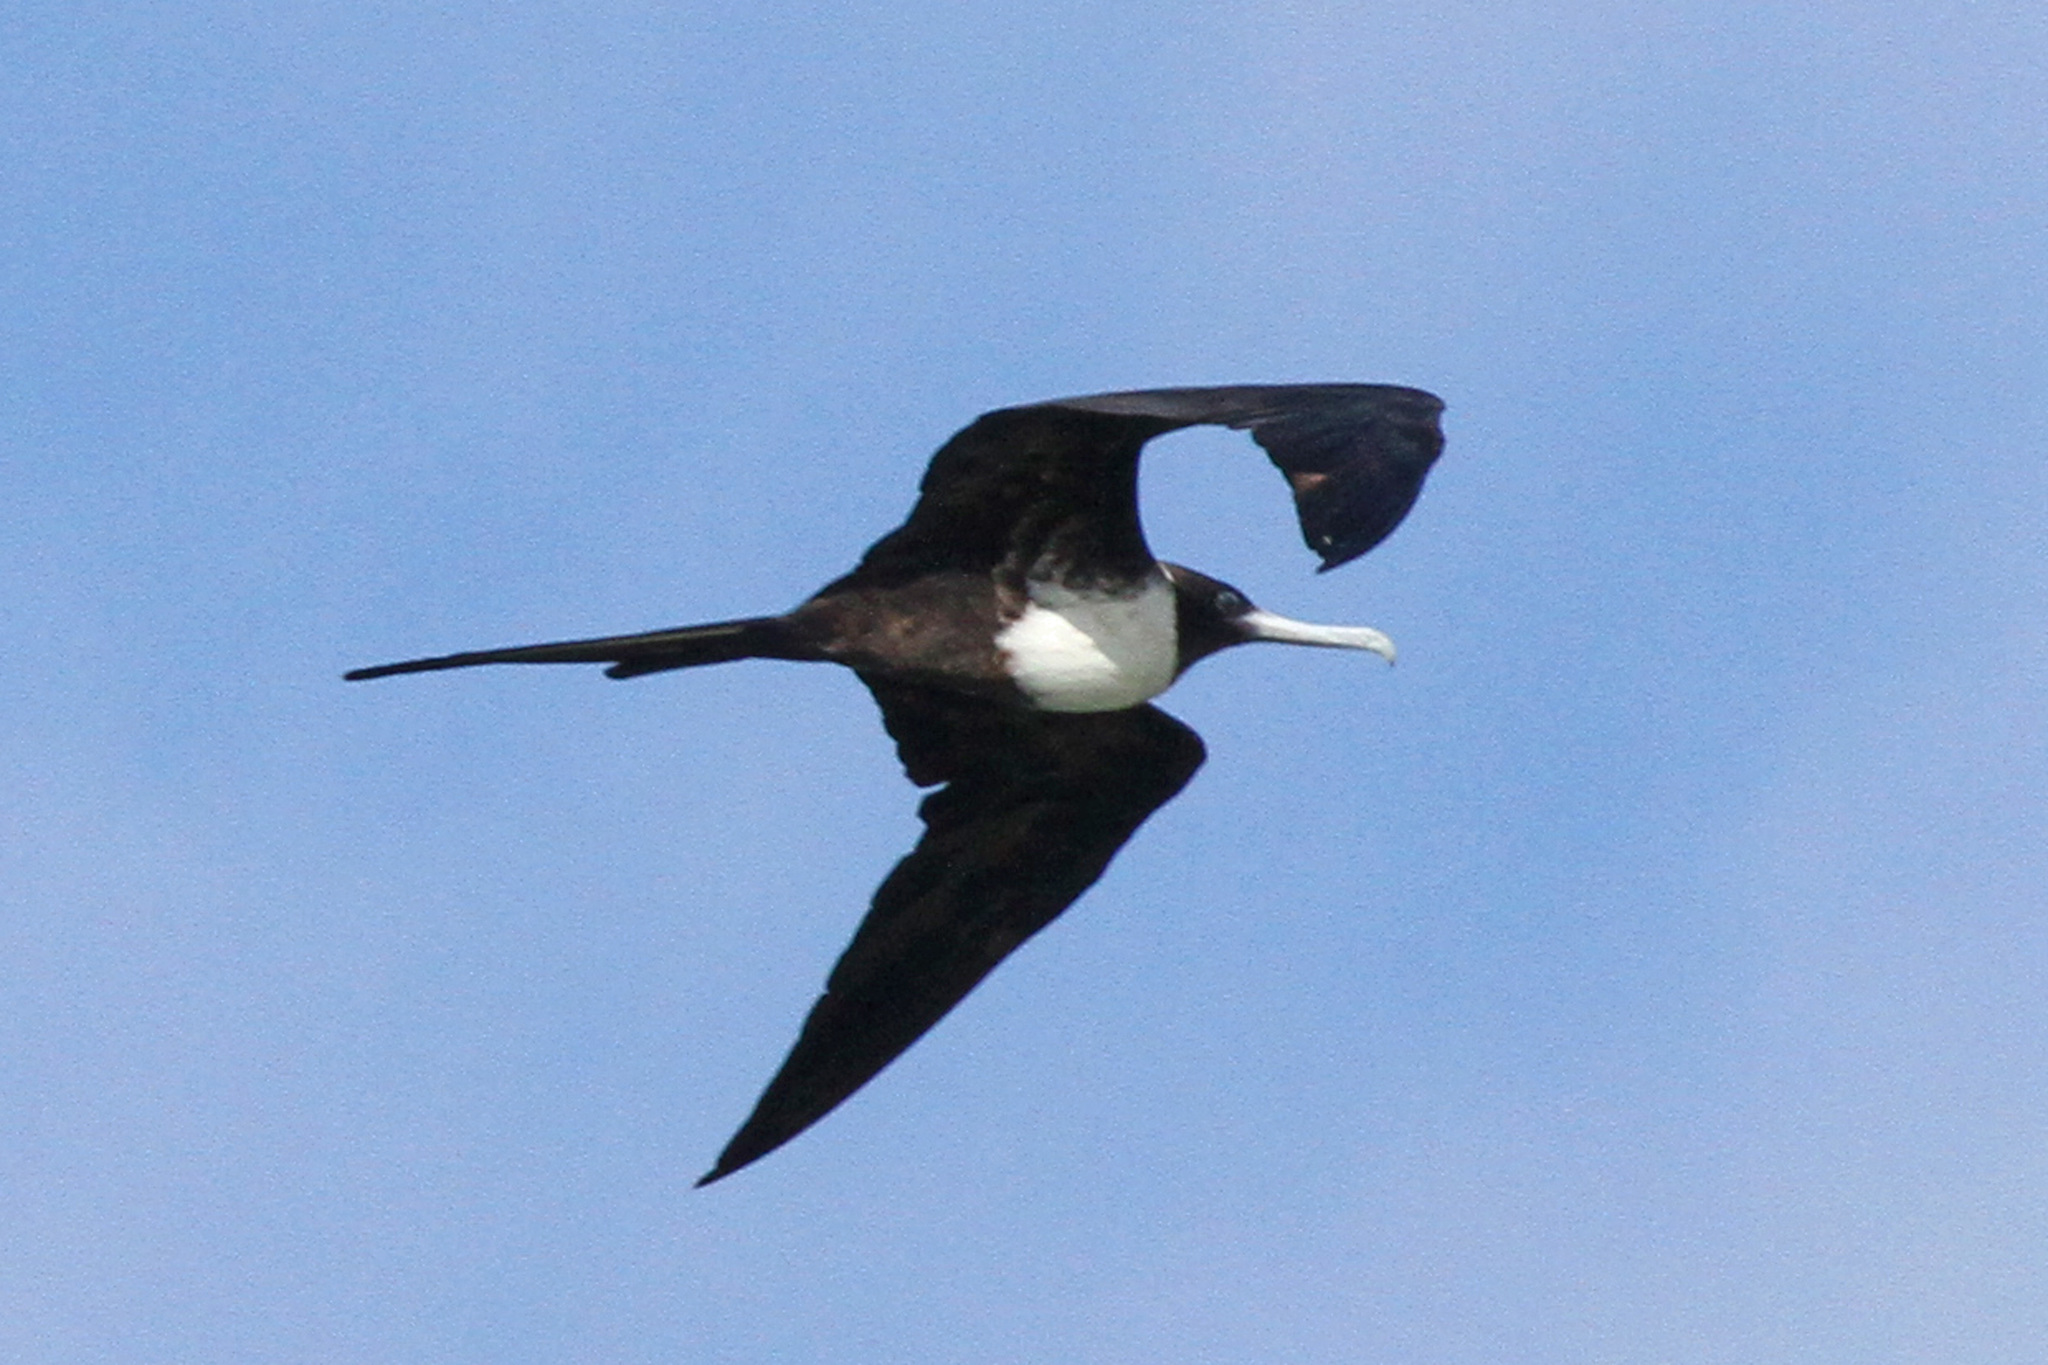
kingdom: Animalia
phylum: Chordata
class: Aves
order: Suliformes
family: Fregatidae
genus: Fregata
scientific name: Fregata magnificens
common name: Magnificent frigatebird
